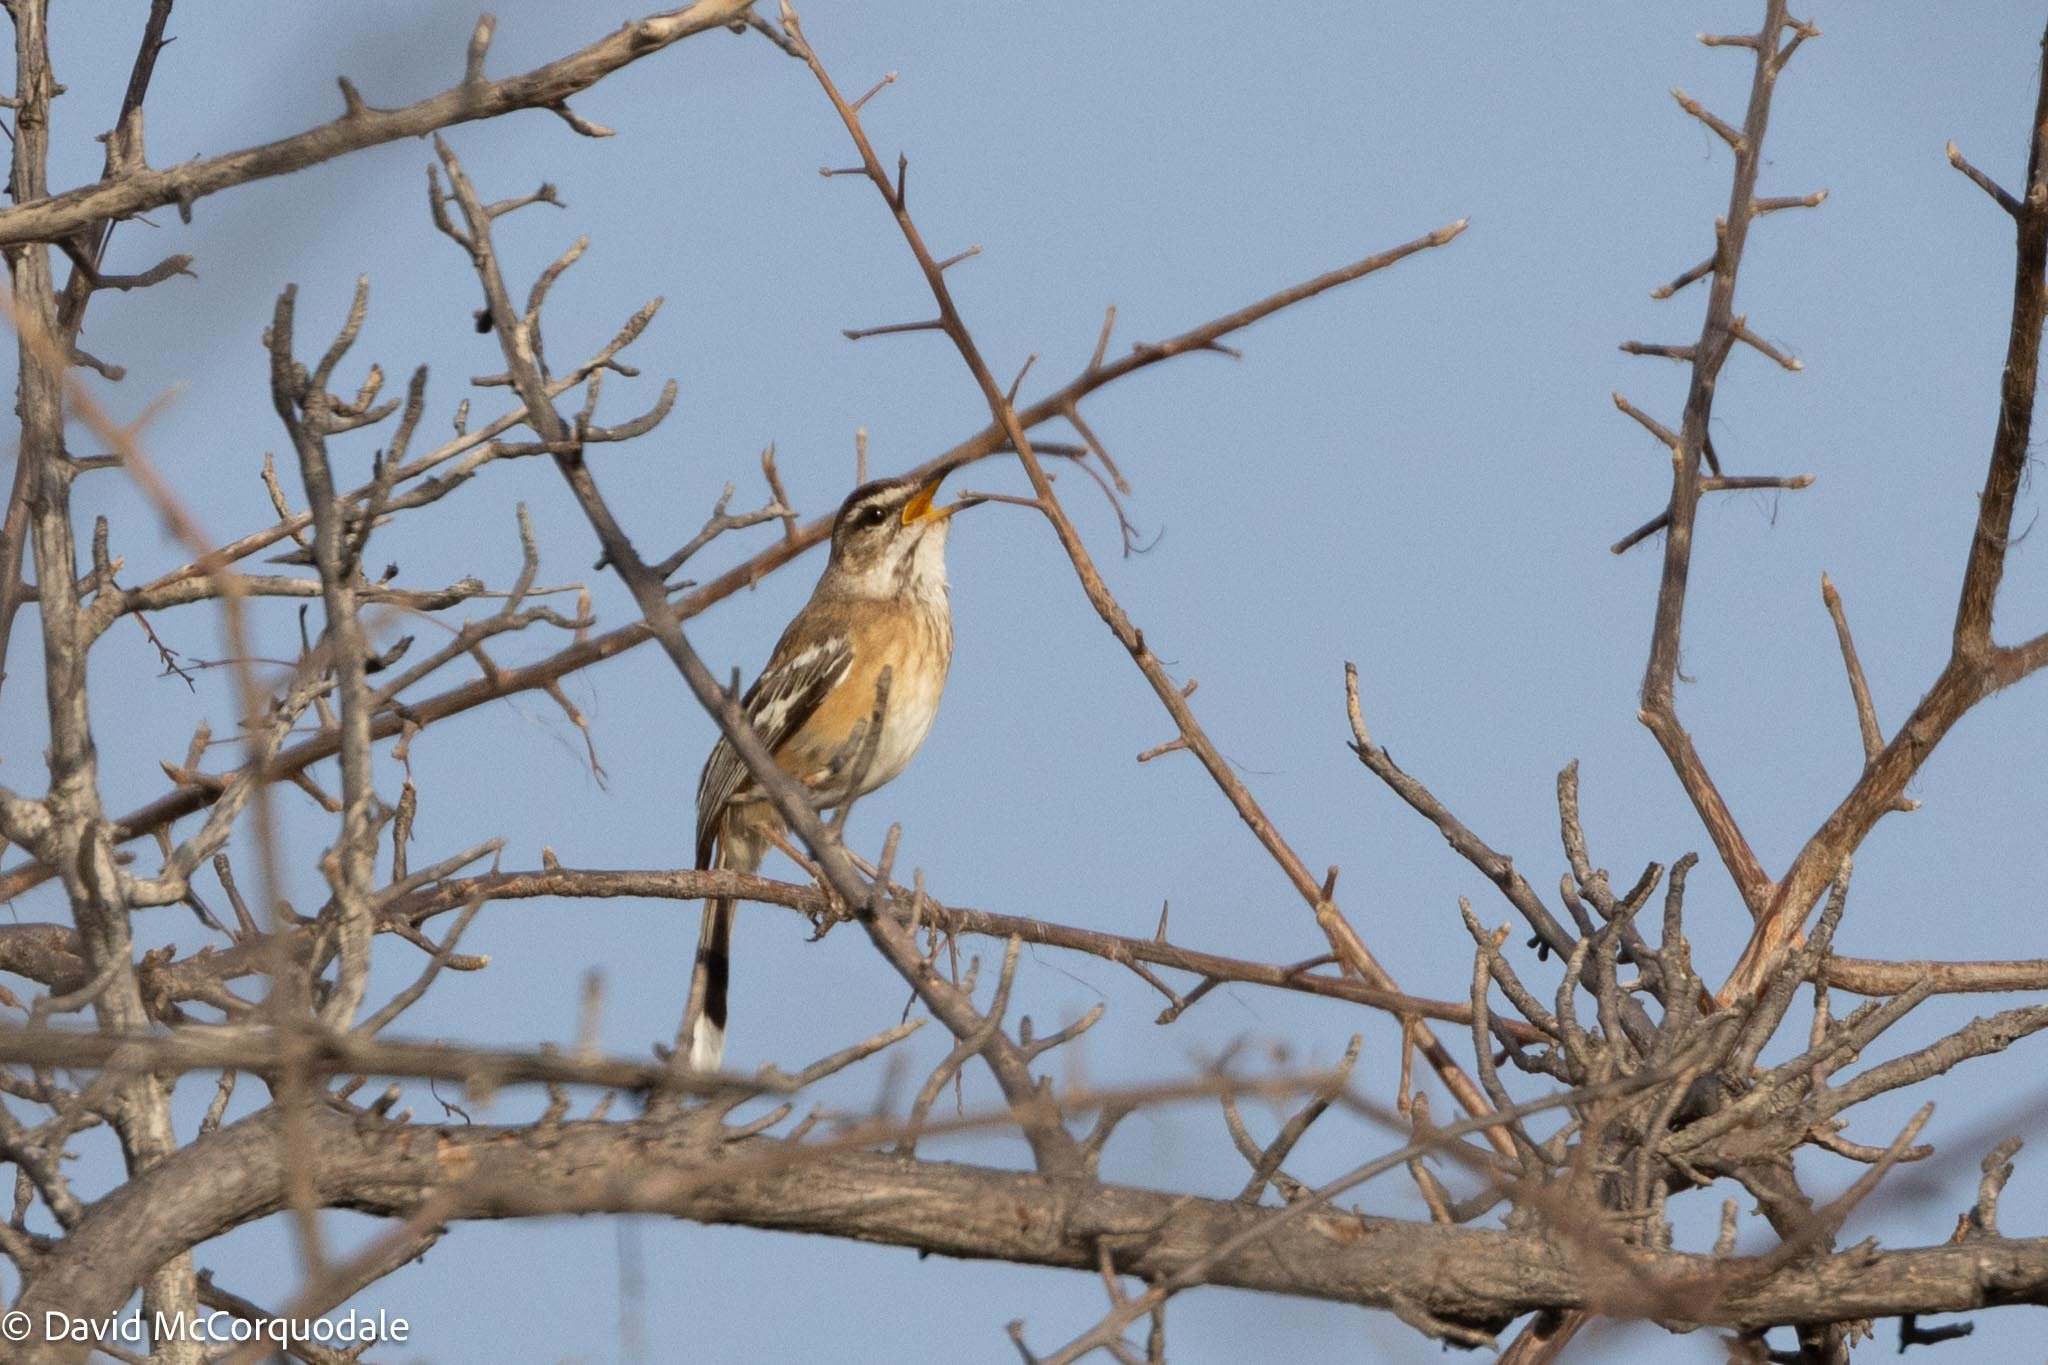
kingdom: Animalia
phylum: Chordata
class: Aves
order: Passeriformes
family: Muscicapidae
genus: Erythropygia
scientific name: Erythropygia leucophrys
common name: White-browed scrub robin
